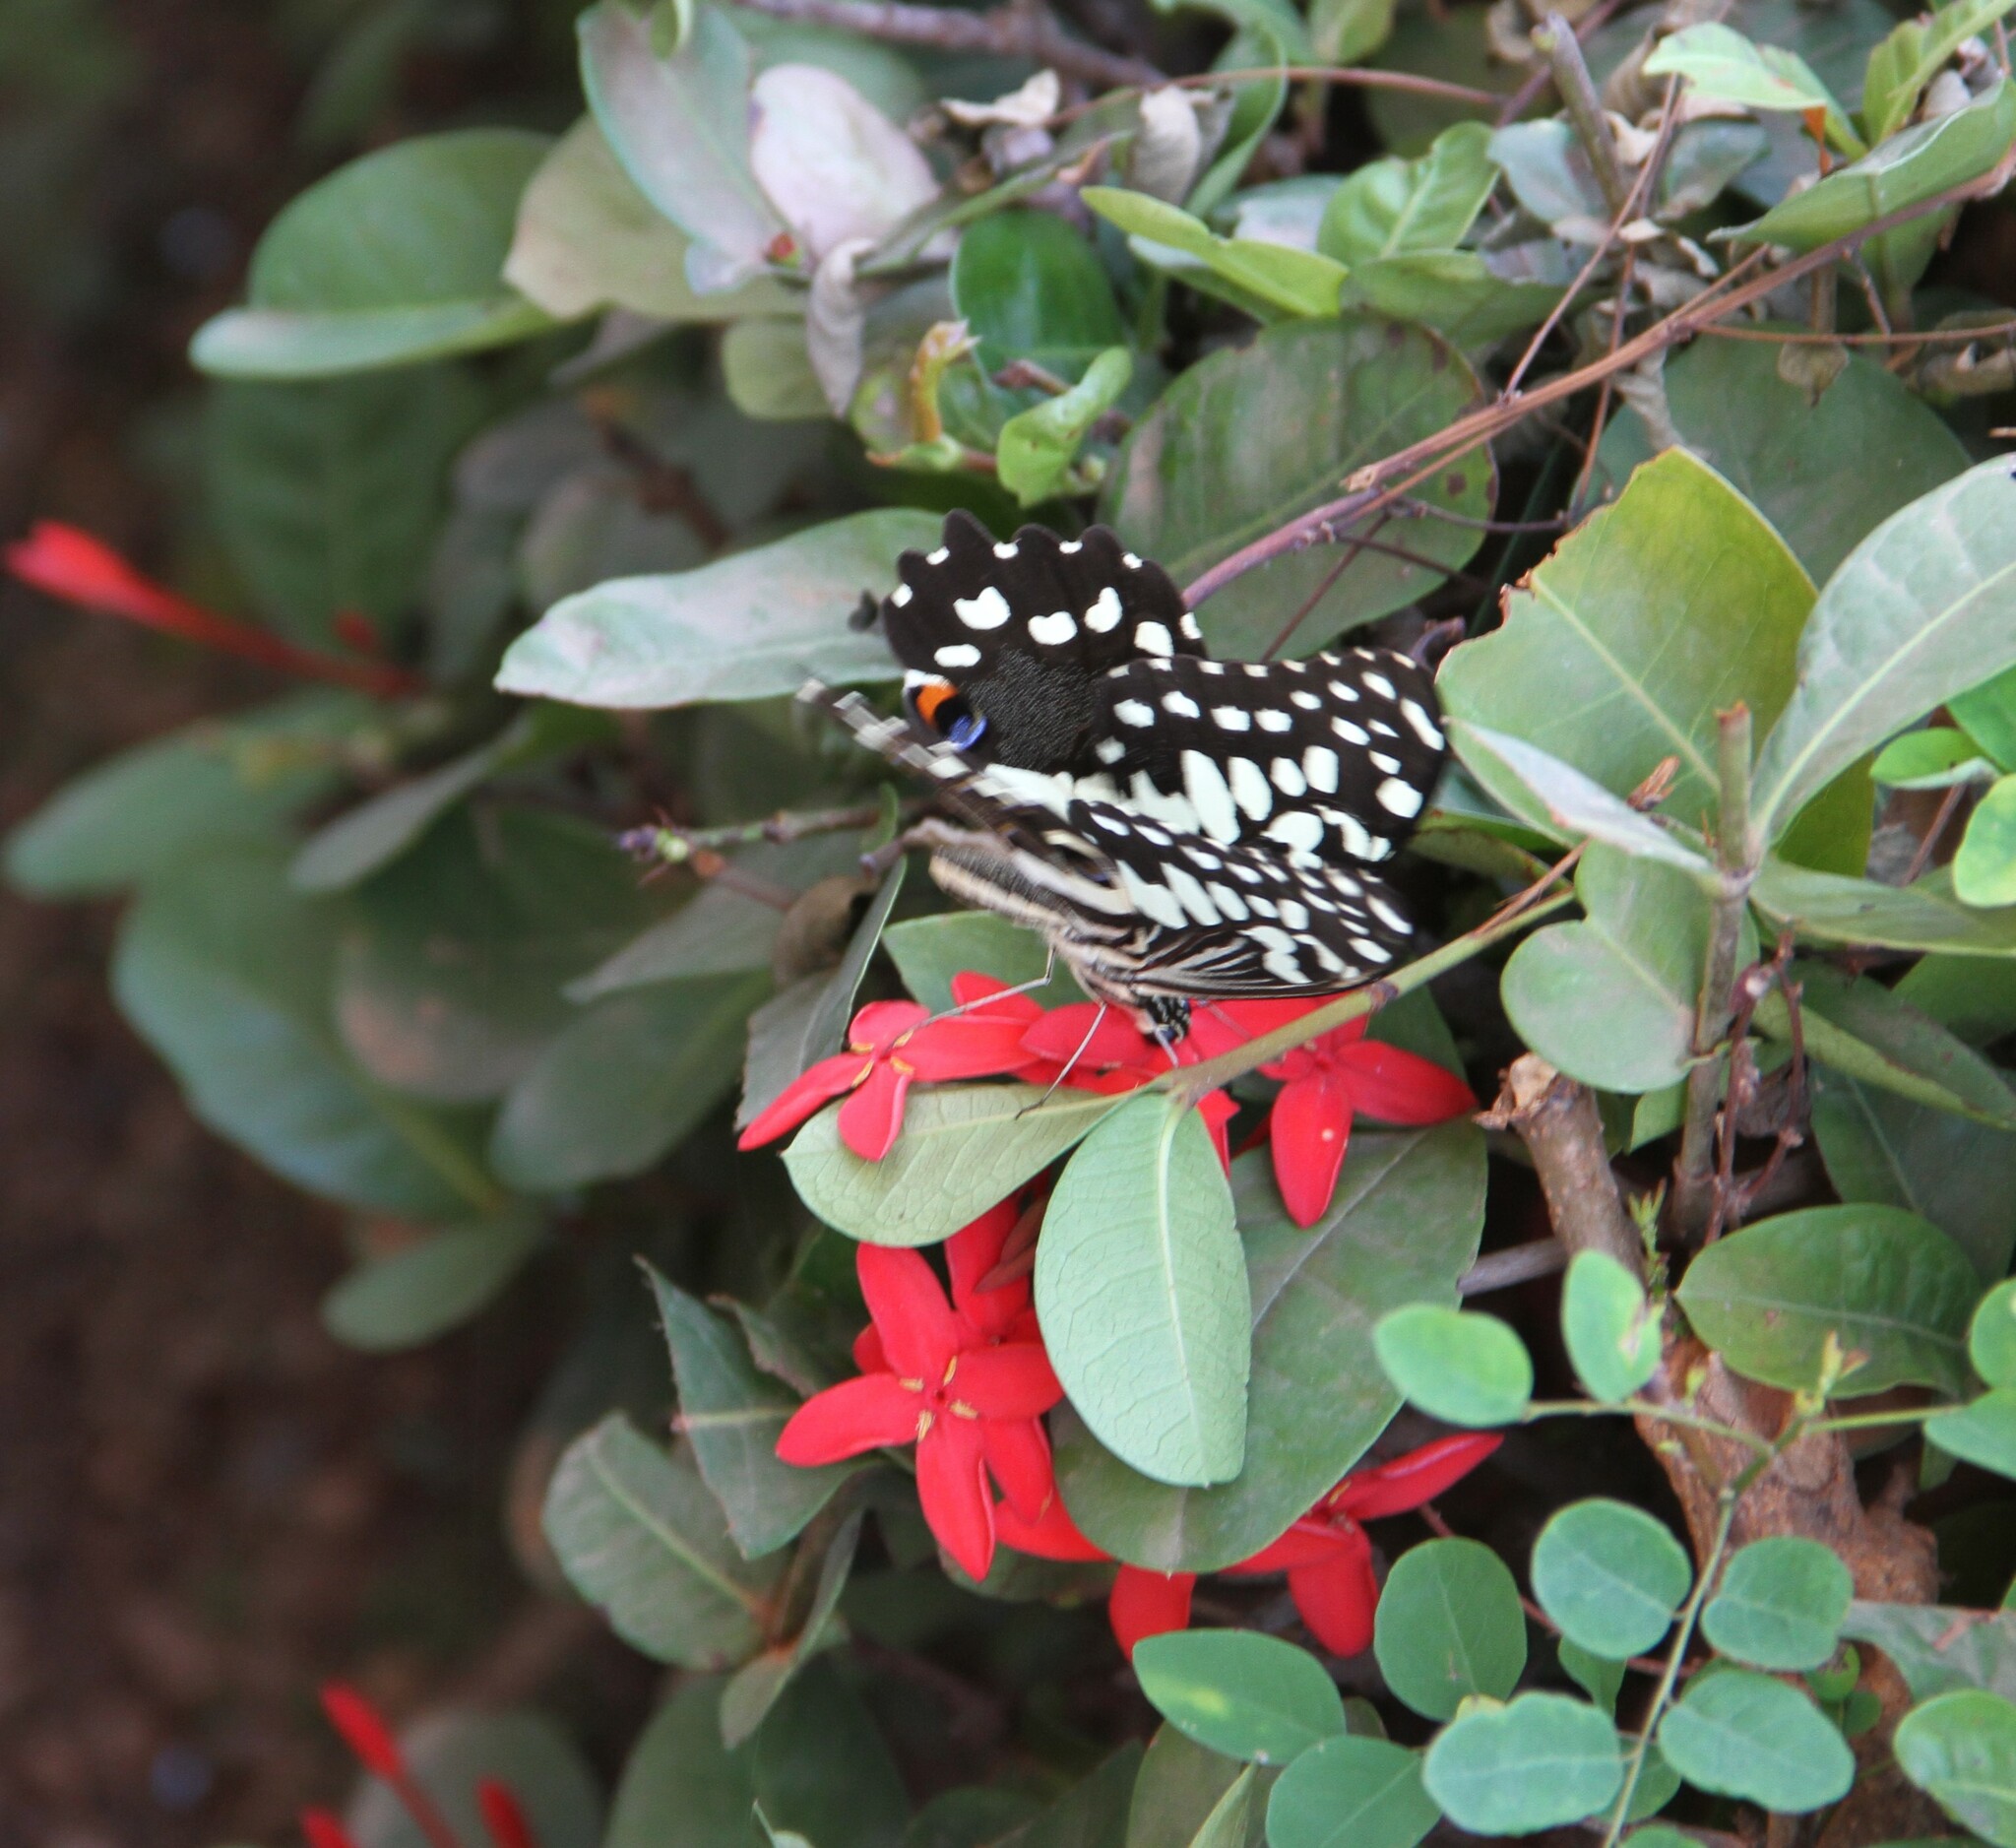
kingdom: Animalia
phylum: Arthropoda
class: Insecta
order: Lepidoptera
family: Papilionidae
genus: Papilio
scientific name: Papilio demodocus
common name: Christmas butterfly
